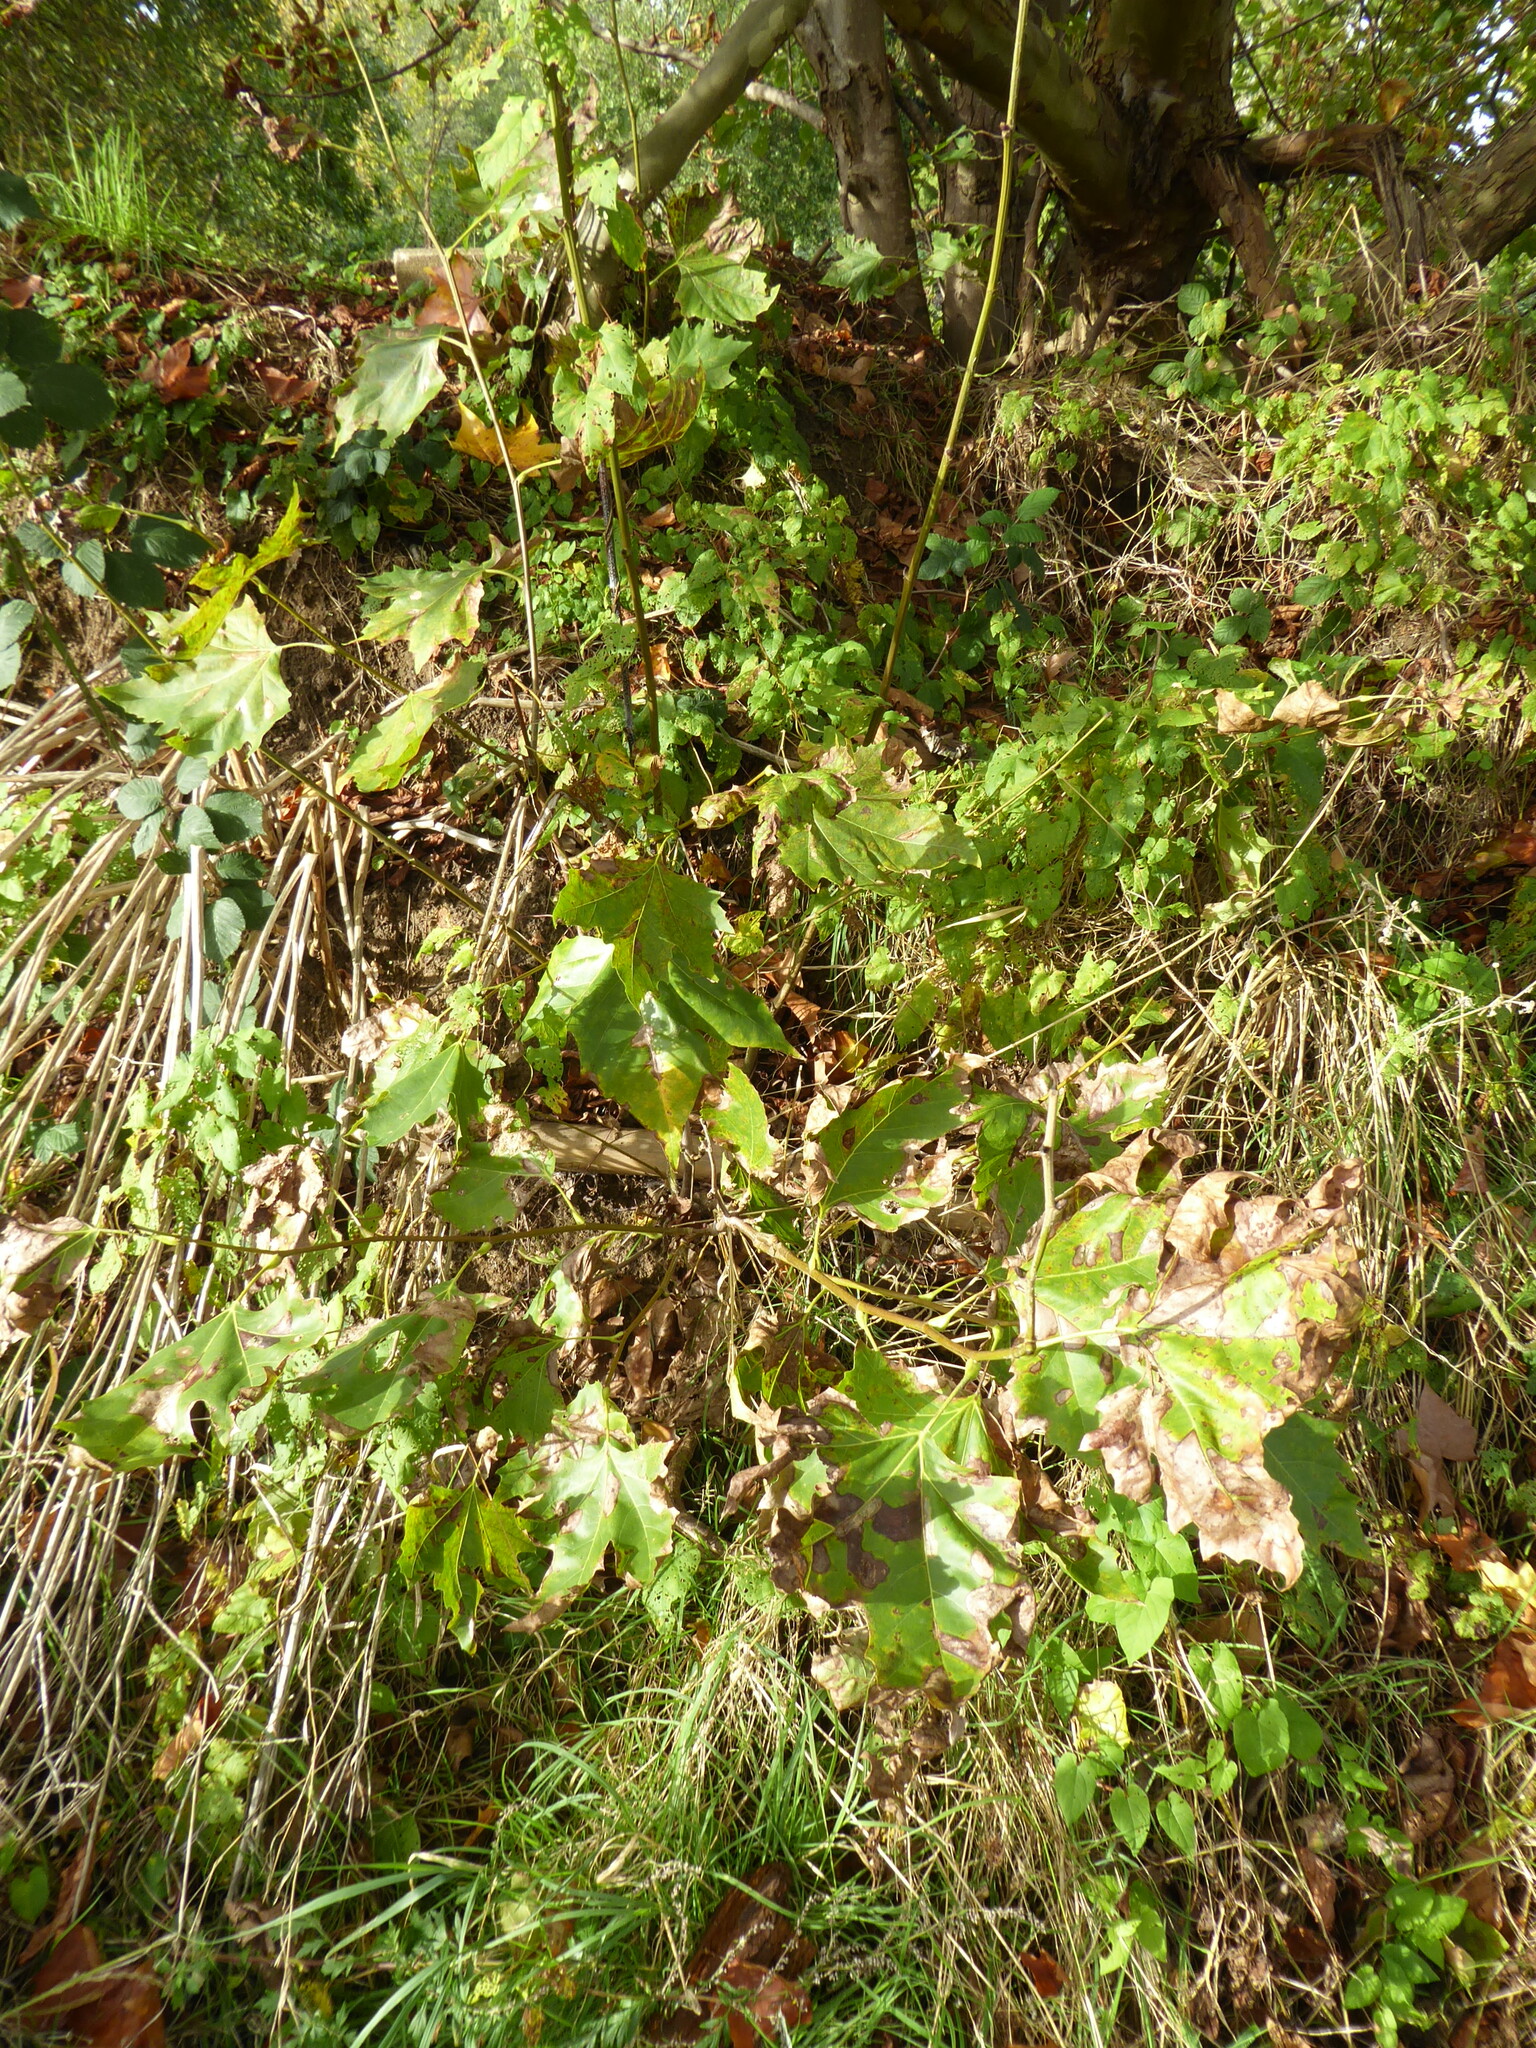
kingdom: Plantae
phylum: Tracheophyta
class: Magnoliopsida
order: Proteales
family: Platanaceae
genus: Platanus
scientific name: Platanus hispanica
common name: London plane
